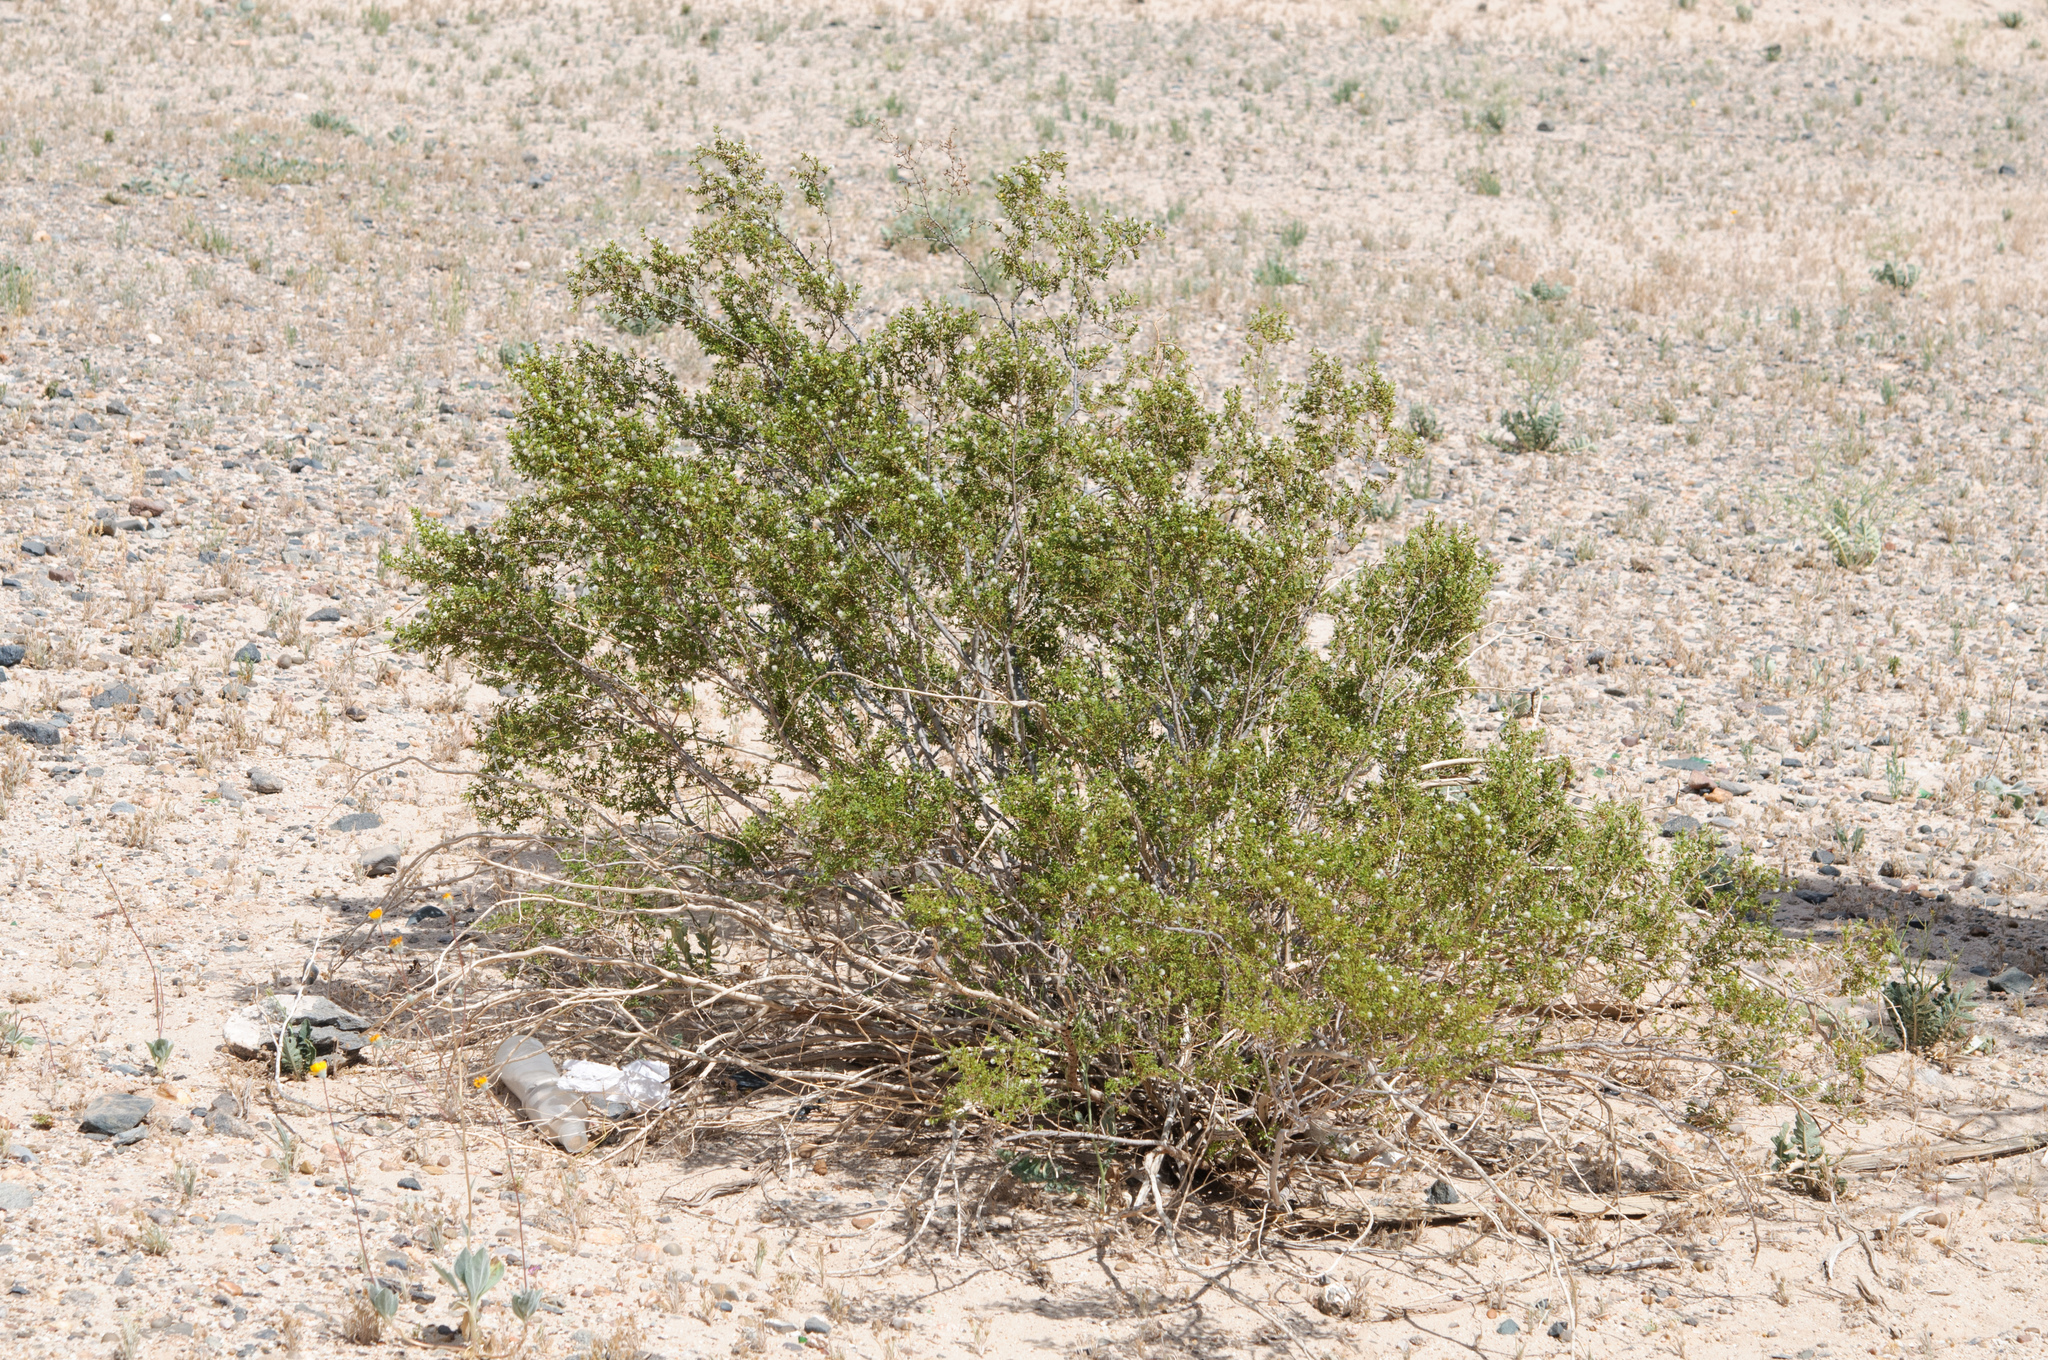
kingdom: Plantae
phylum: Tracheophyta
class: Magnoliopsida
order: Zygophyllales
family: Zygophyllaceae
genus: Larrea
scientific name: Larrea tridentata
